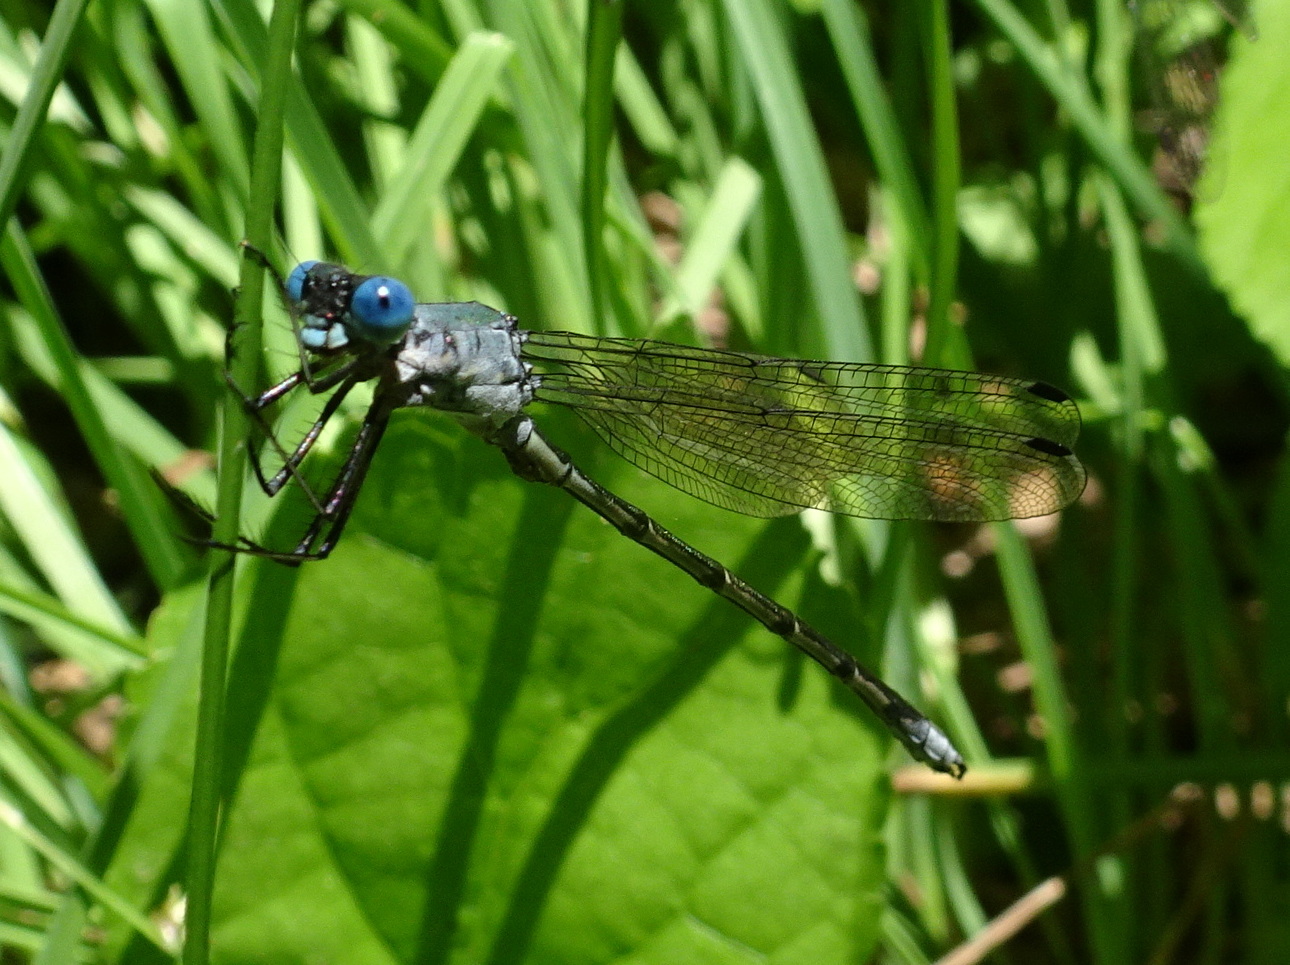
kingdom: Animalia
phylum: Arthropoda
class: Insecta
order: Odonata
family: Lestidae
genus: Lestes
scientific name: Lestes eurinus
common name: Amber-winged spreadwing
